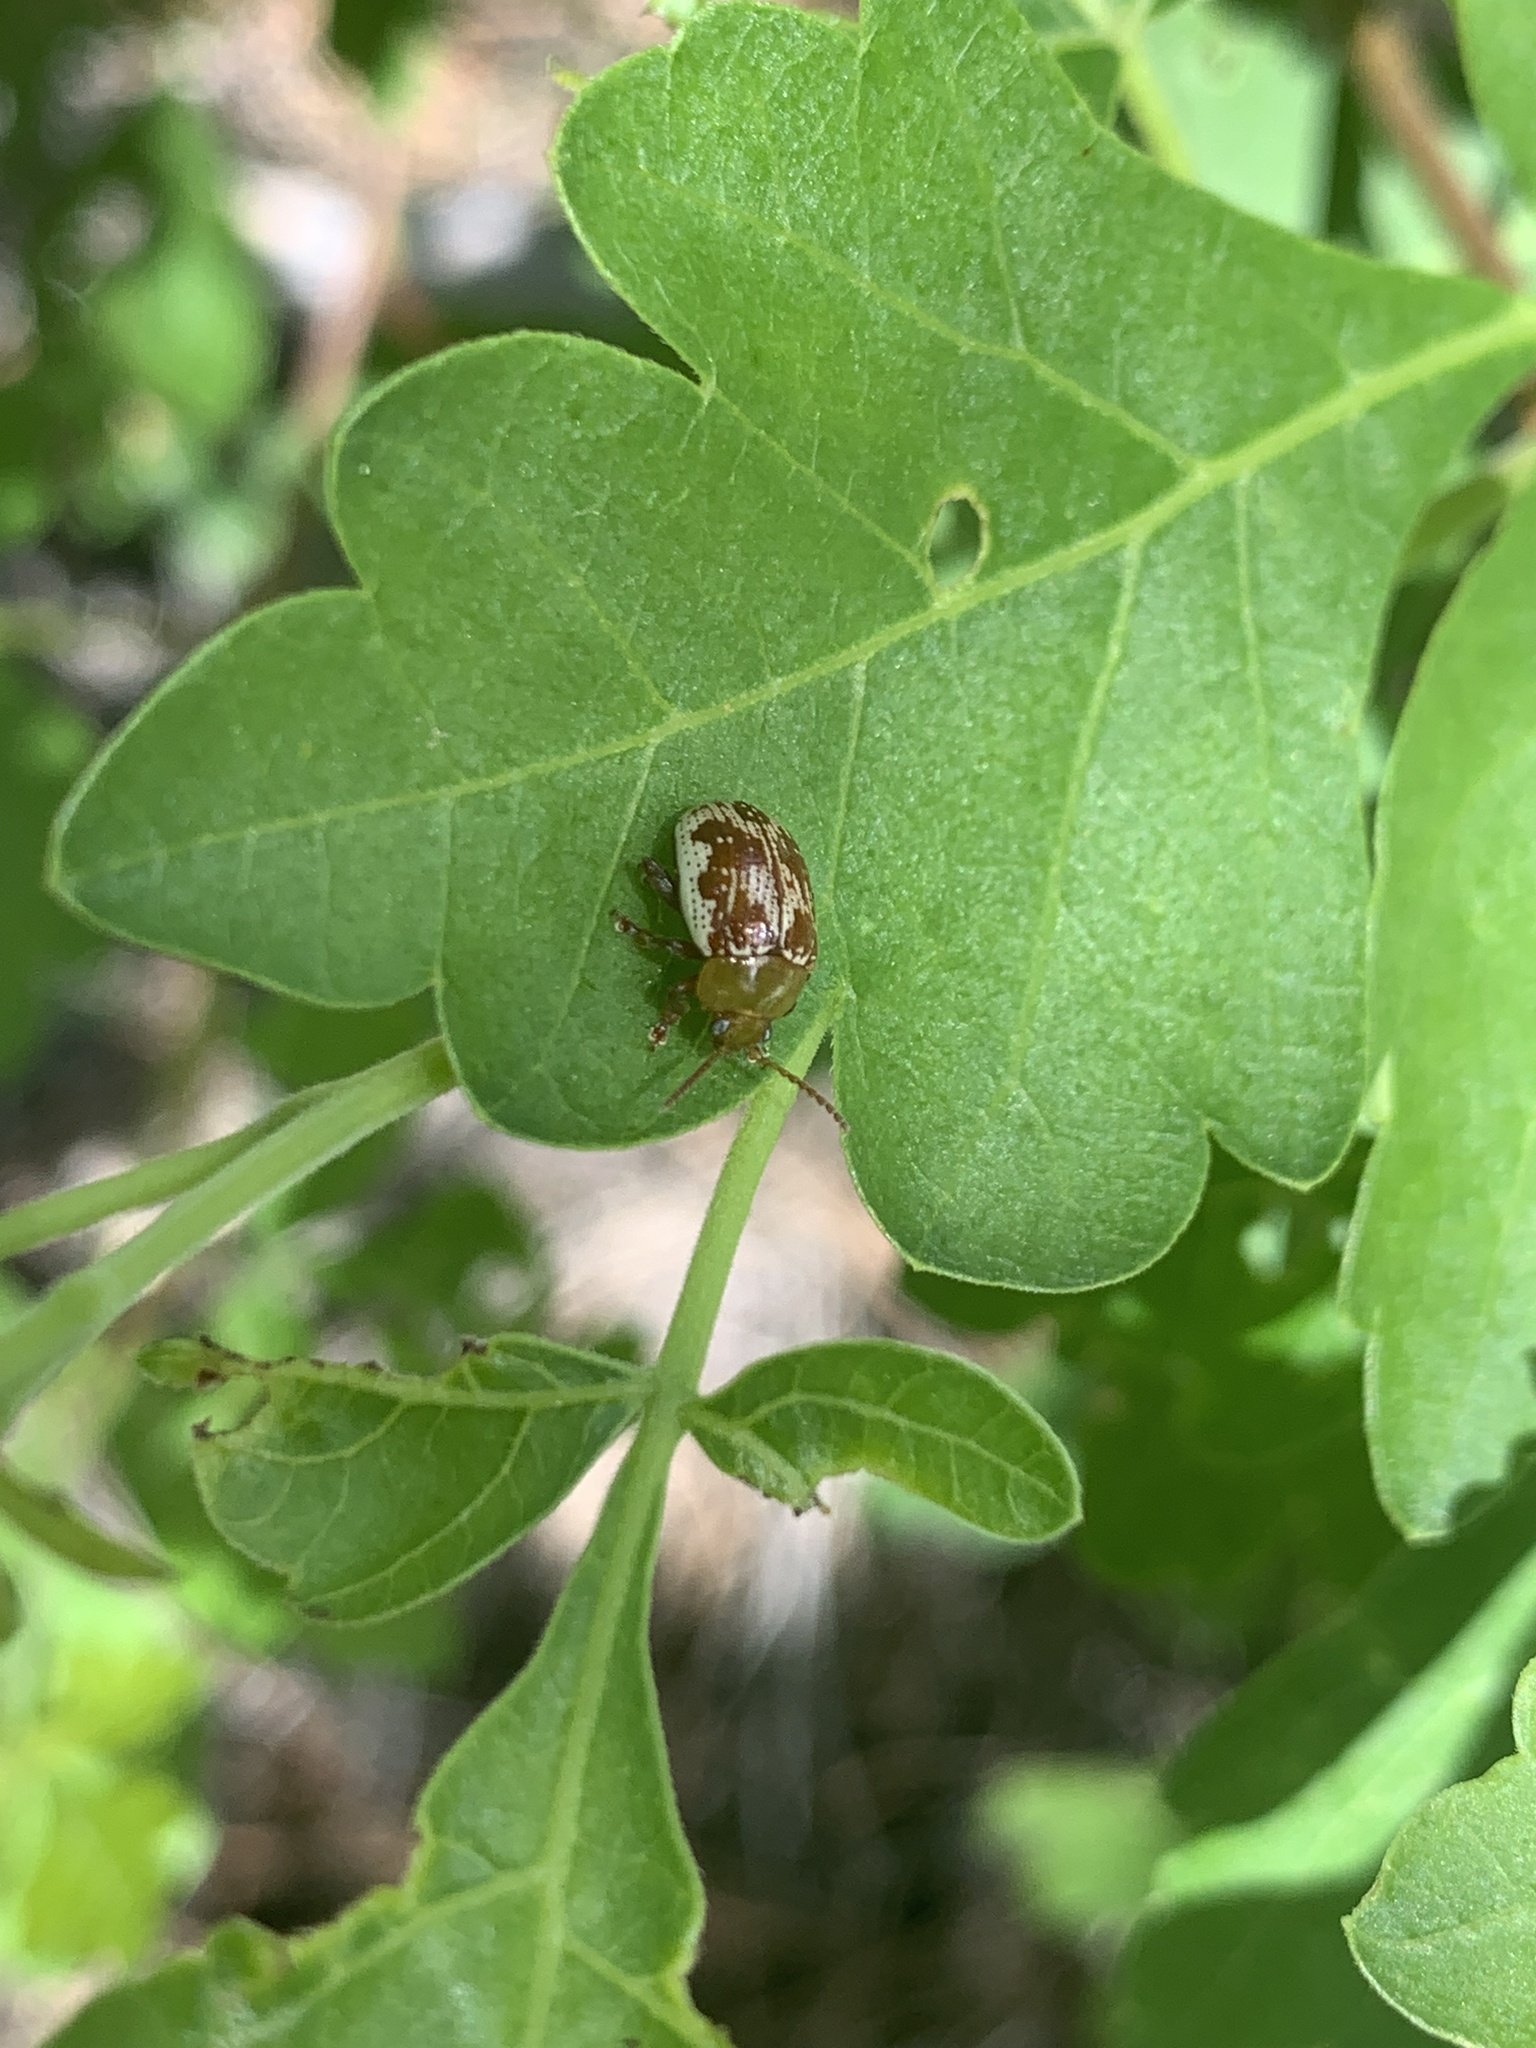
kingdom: Animalia
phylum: Arthropoda
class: Insecta
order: Coleoptera
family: Chrysomelidae
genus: Blepharida
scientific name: Blepharida rhois
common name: Sumac flea beetle
